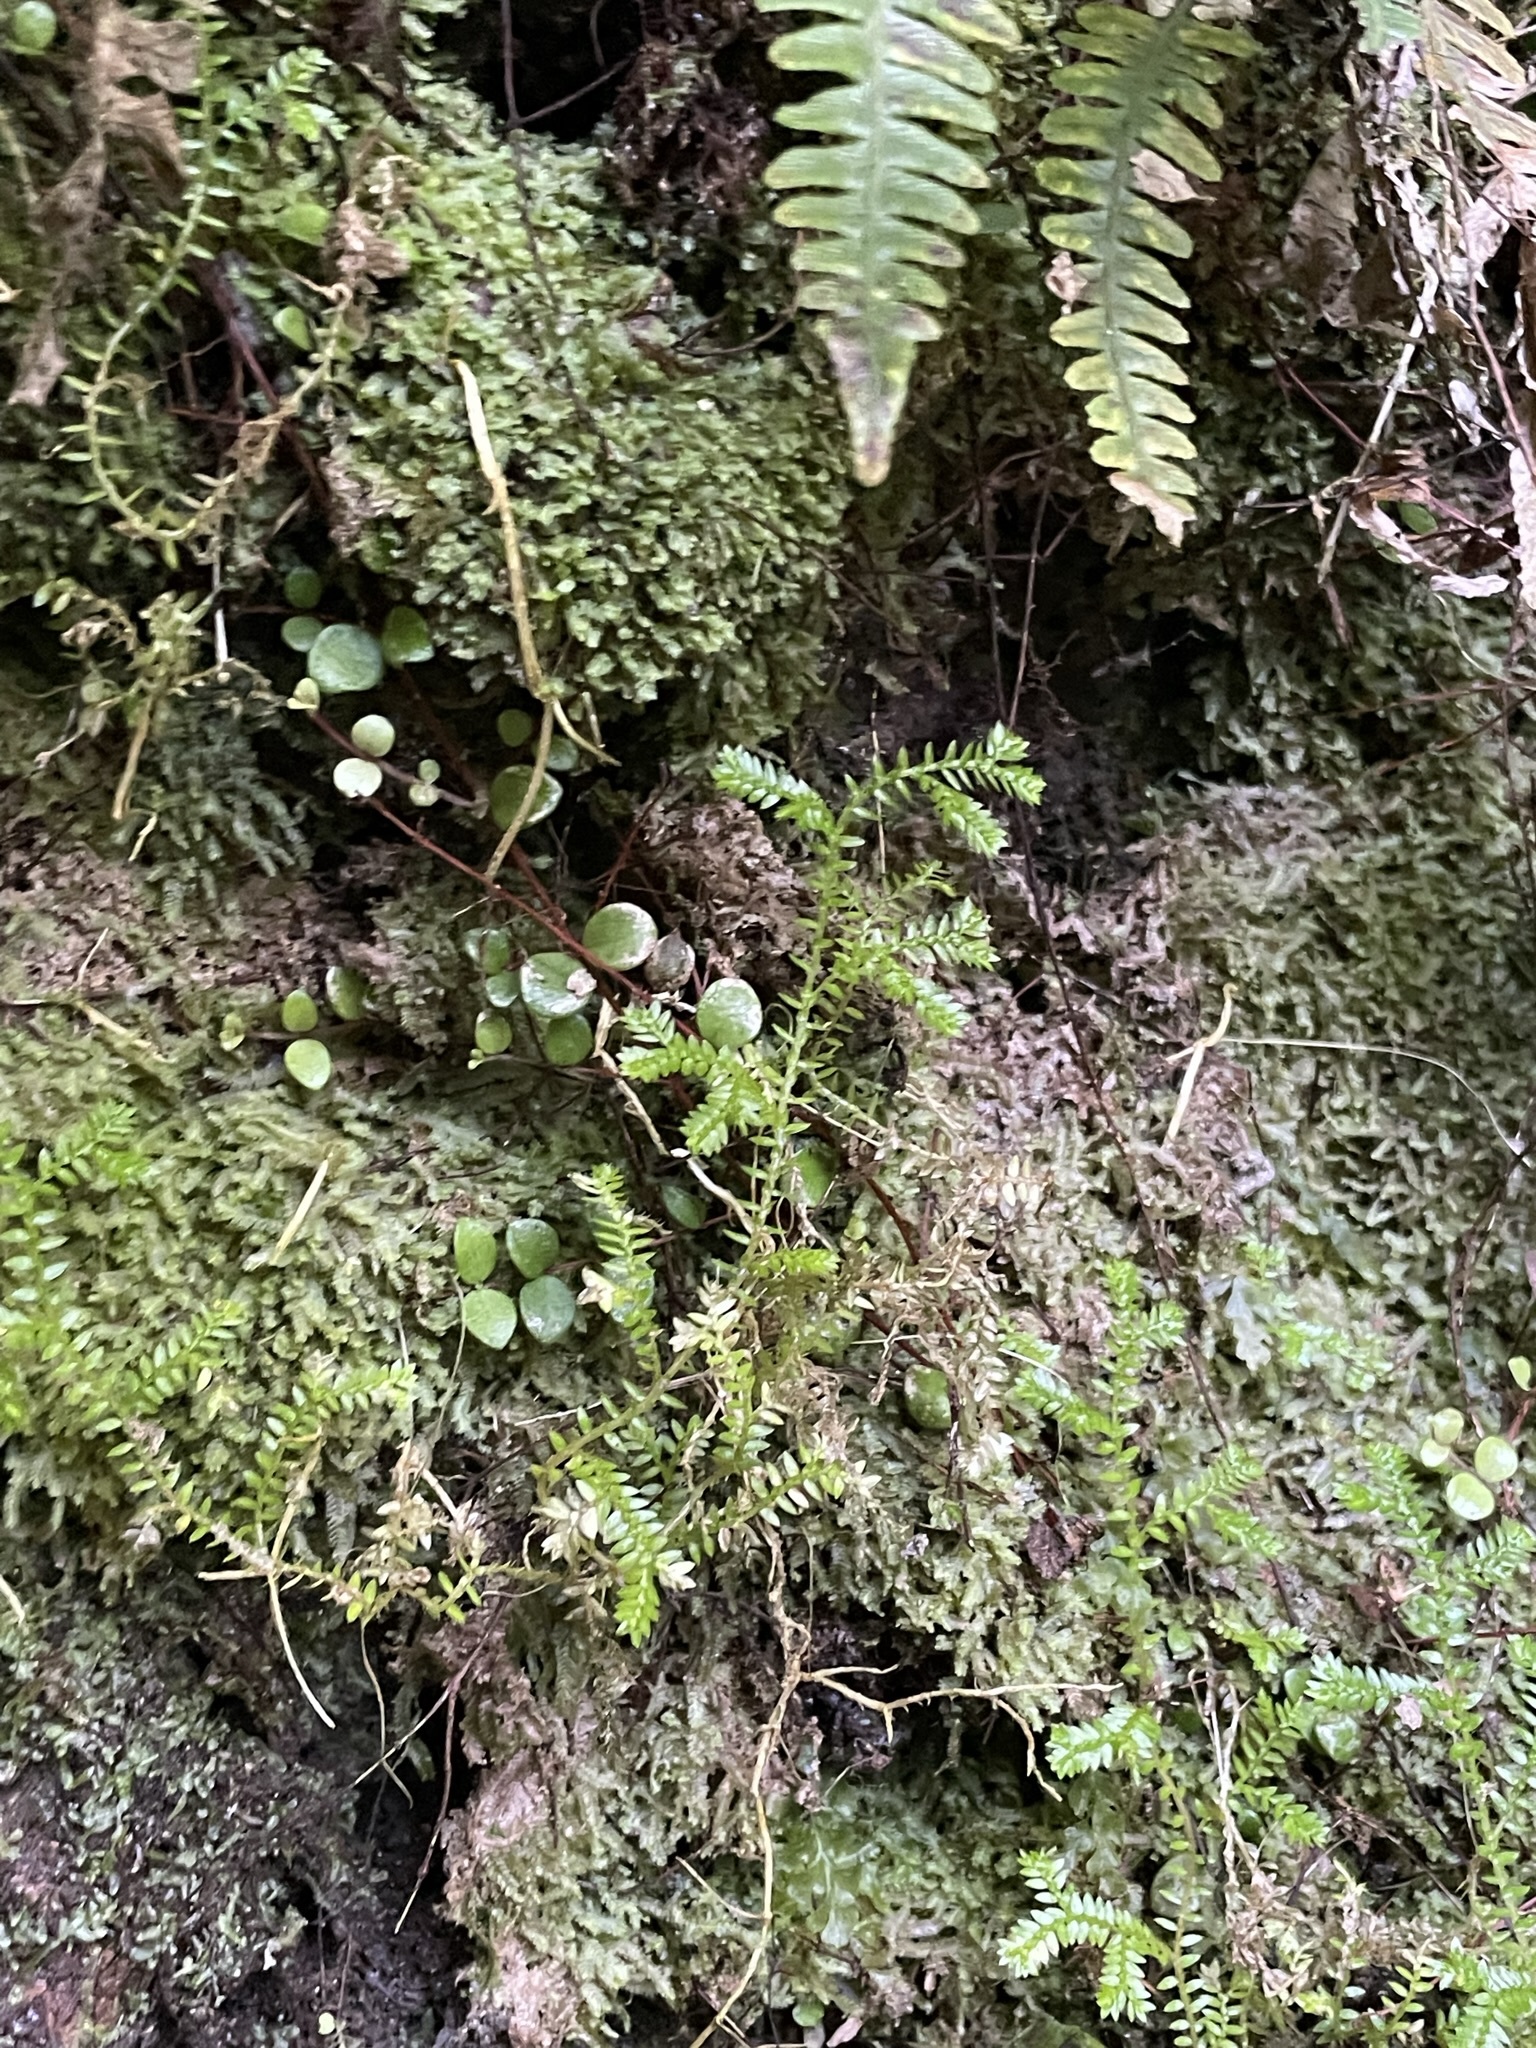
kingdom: Plantae
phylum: Tracheophyta
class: Lycopodiopsida
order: Selaginellales
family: Selaginellaceae
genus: Selaginella
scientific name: Selaginella kraussiana
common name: Krauss' spikemoss
